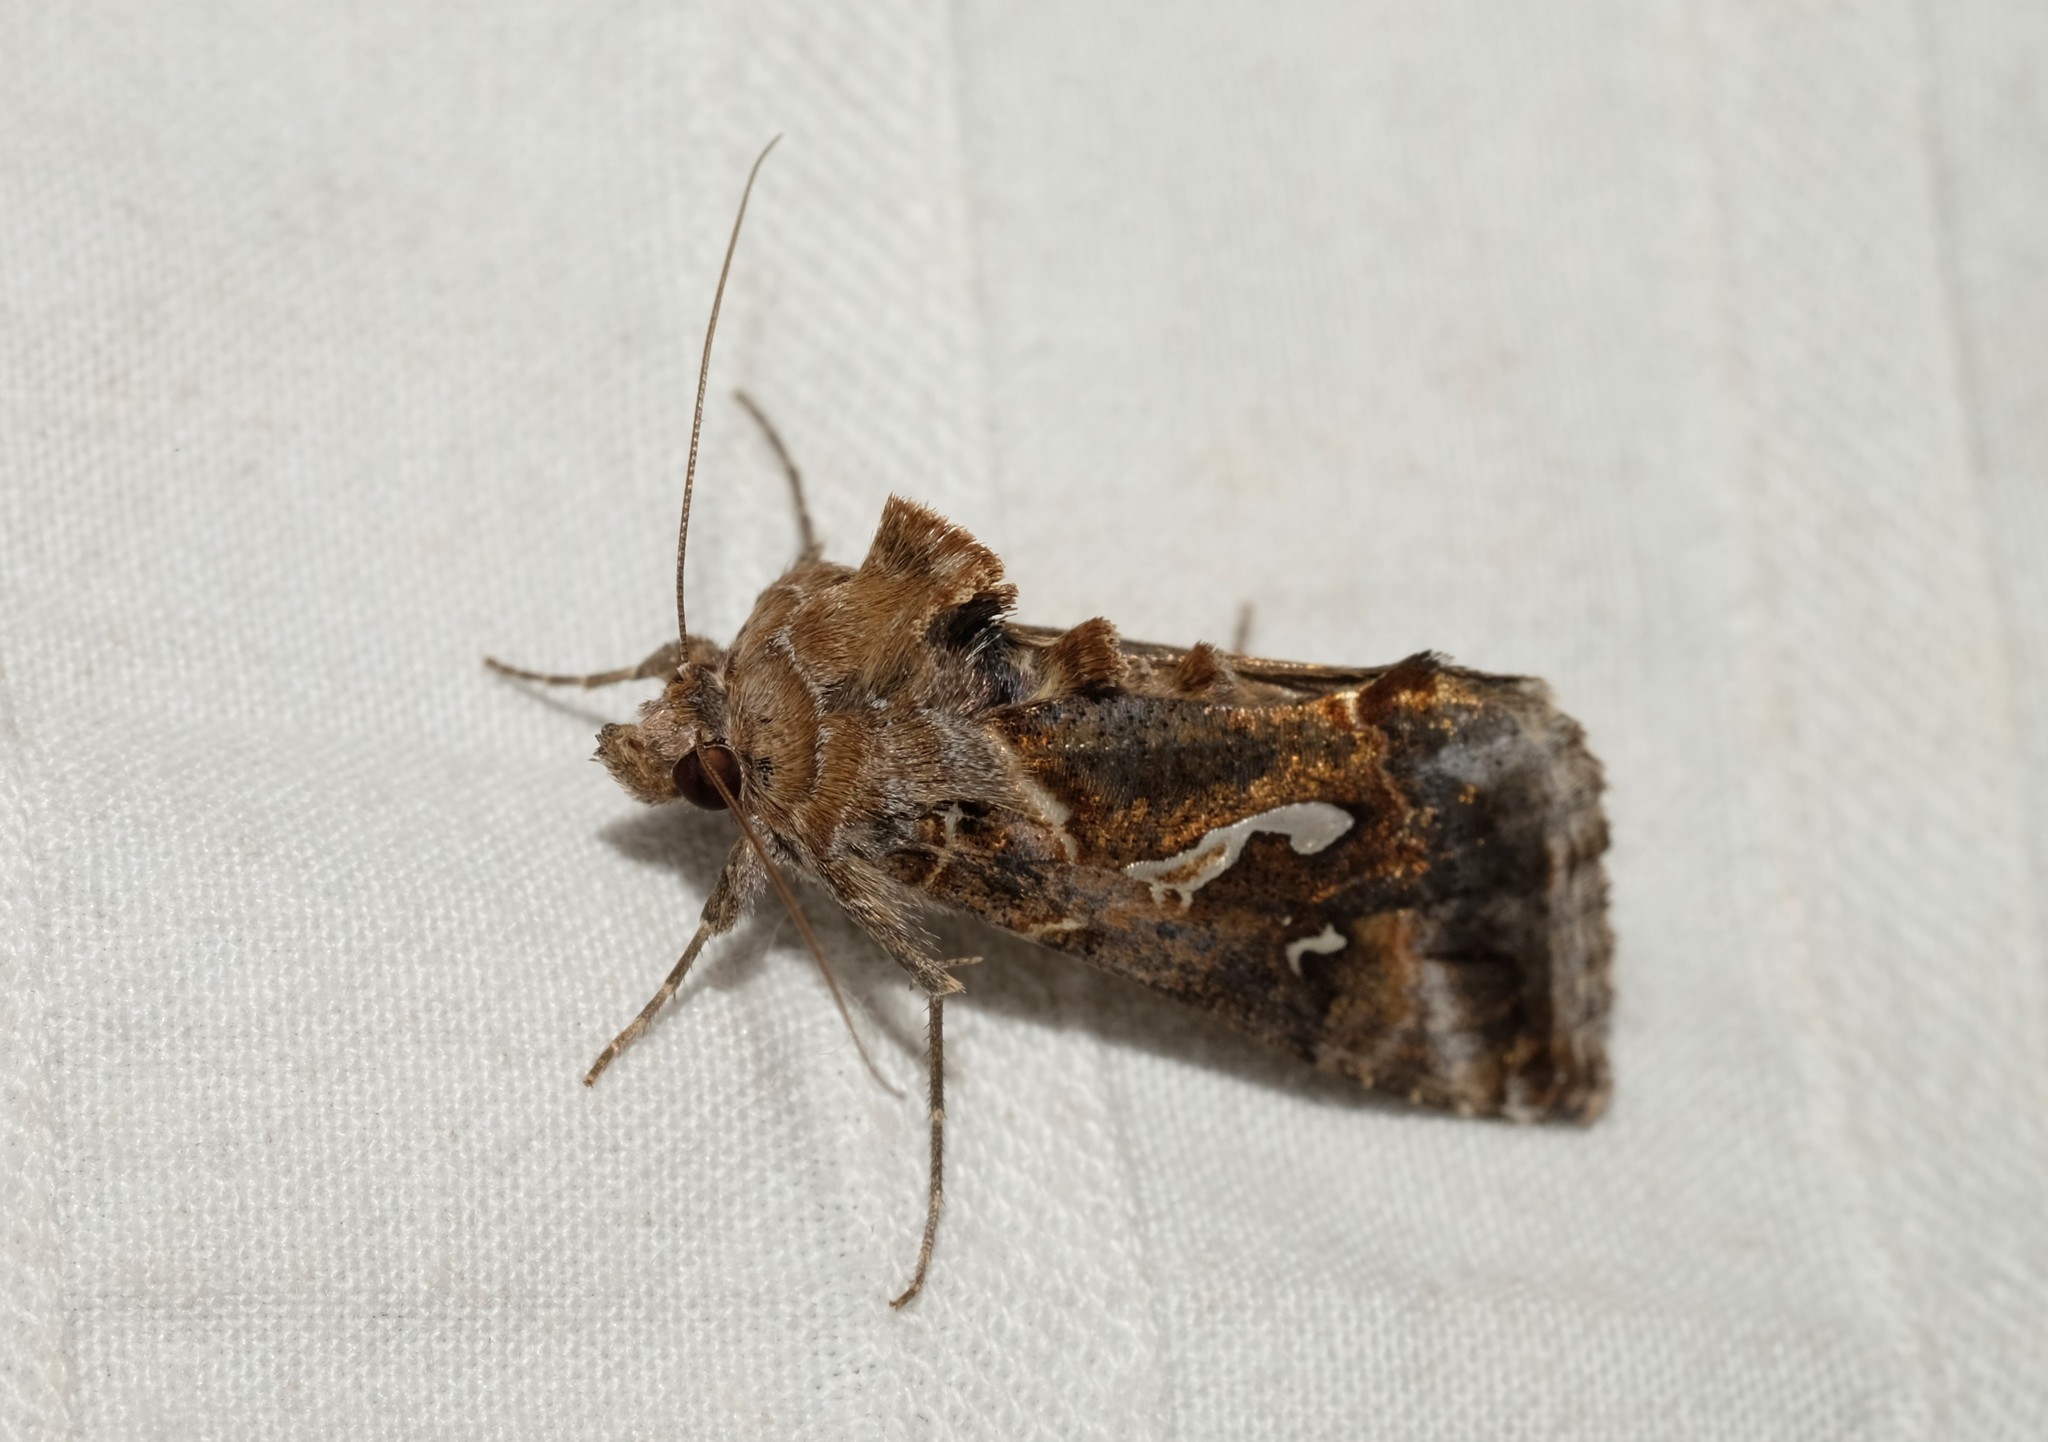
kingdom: Animalia
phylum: Arthropoda
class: Insecta
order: Lepidoptera
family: Noctuidae
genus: Chrysodeixis
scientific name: Chrysodeixis argentifera
